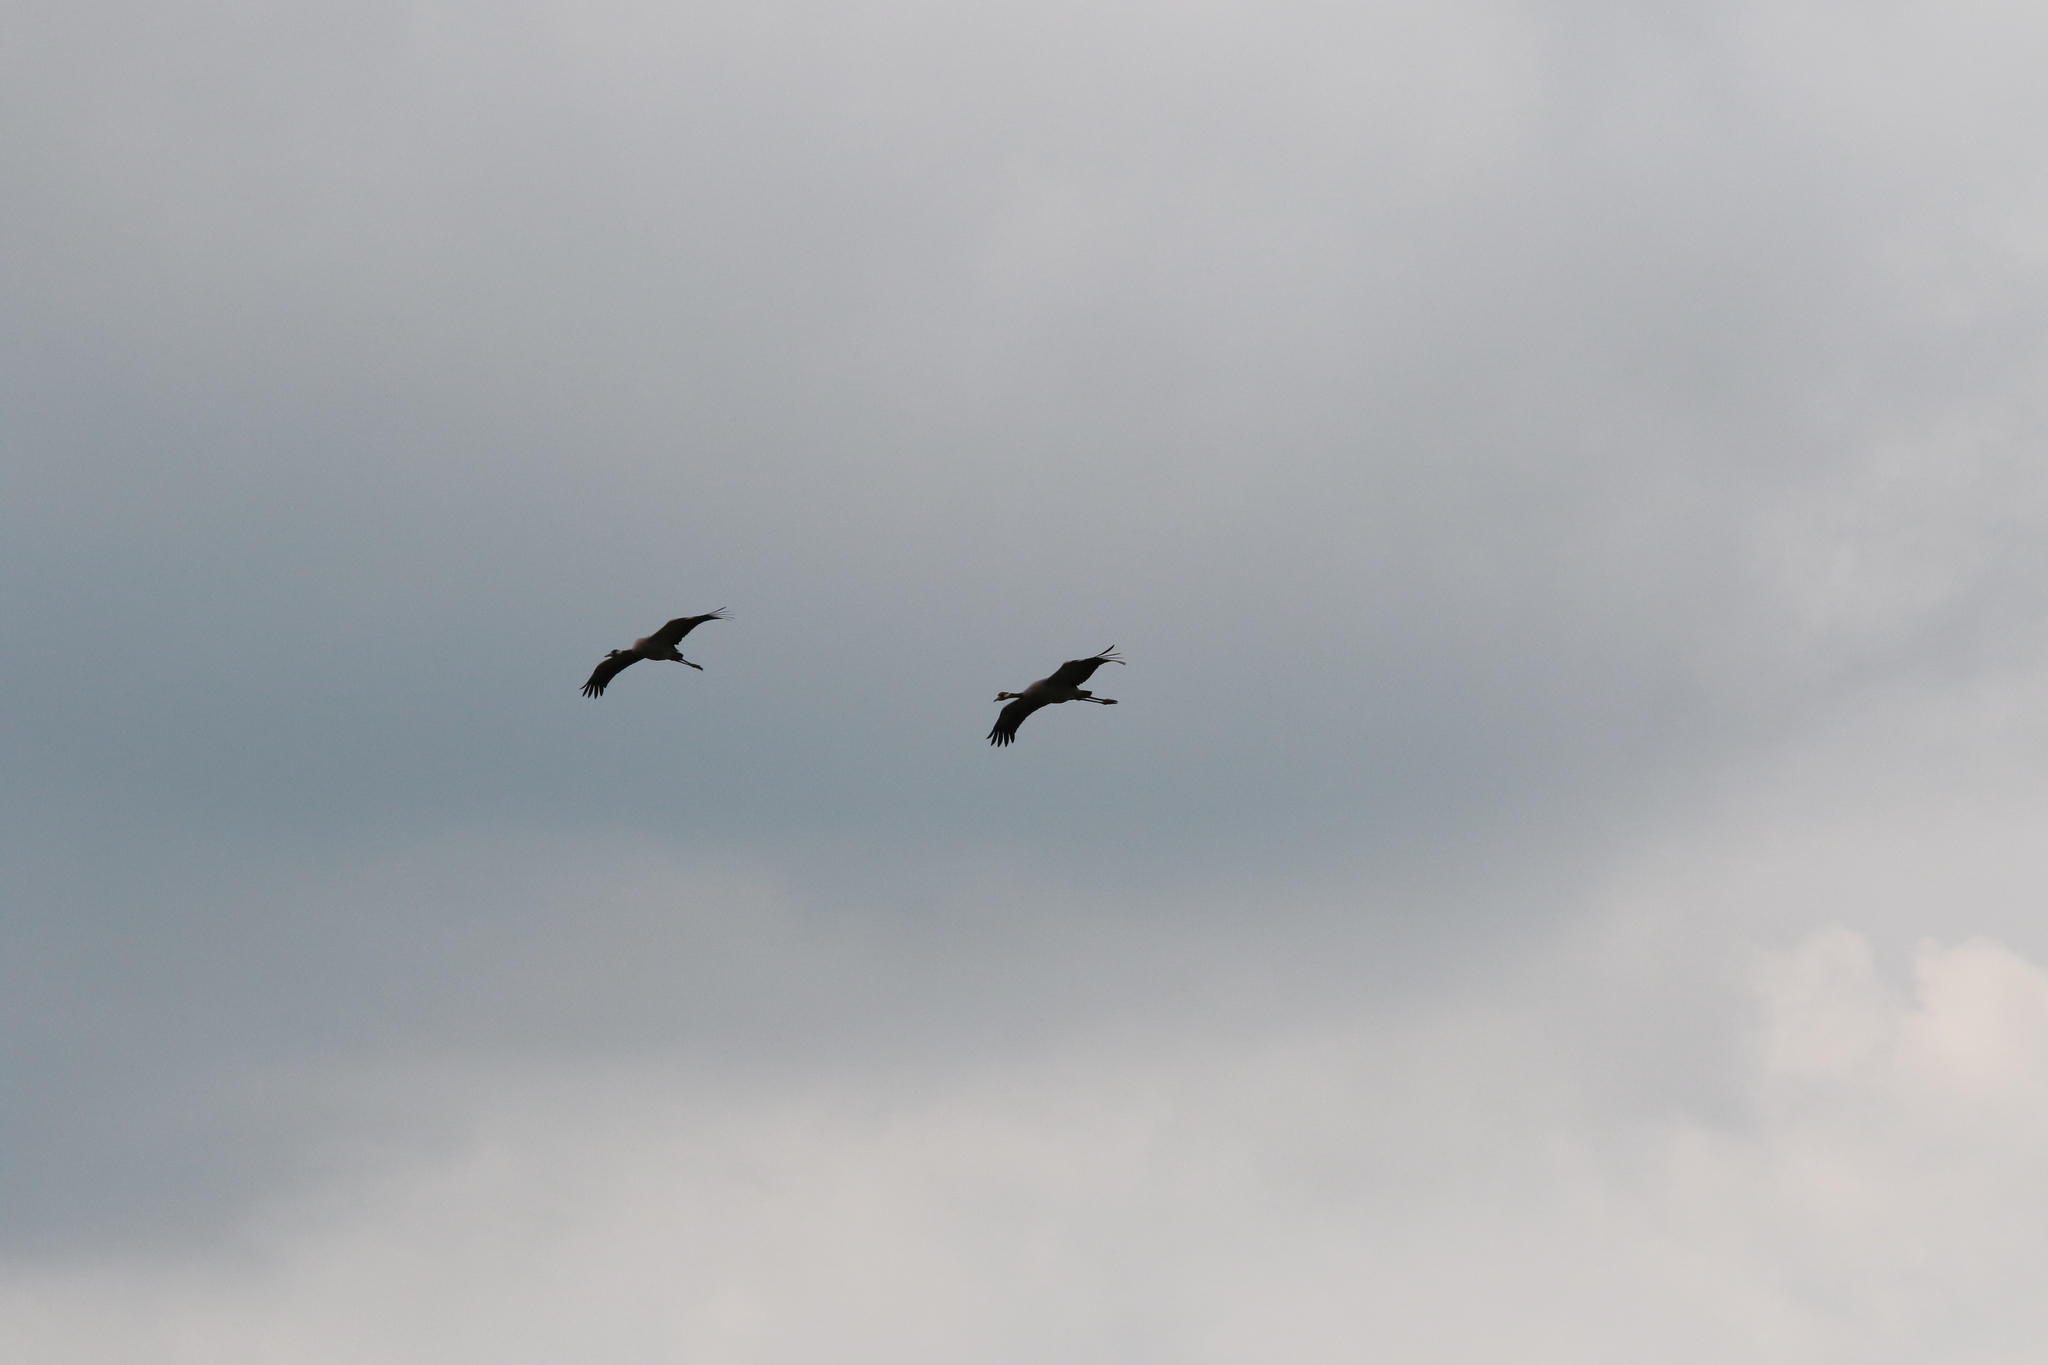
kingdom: Animalia
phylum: Chordata
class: Aves
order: Gruiformes
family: Gruidae
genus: Grus
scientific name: Grus grus
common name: Common crane
